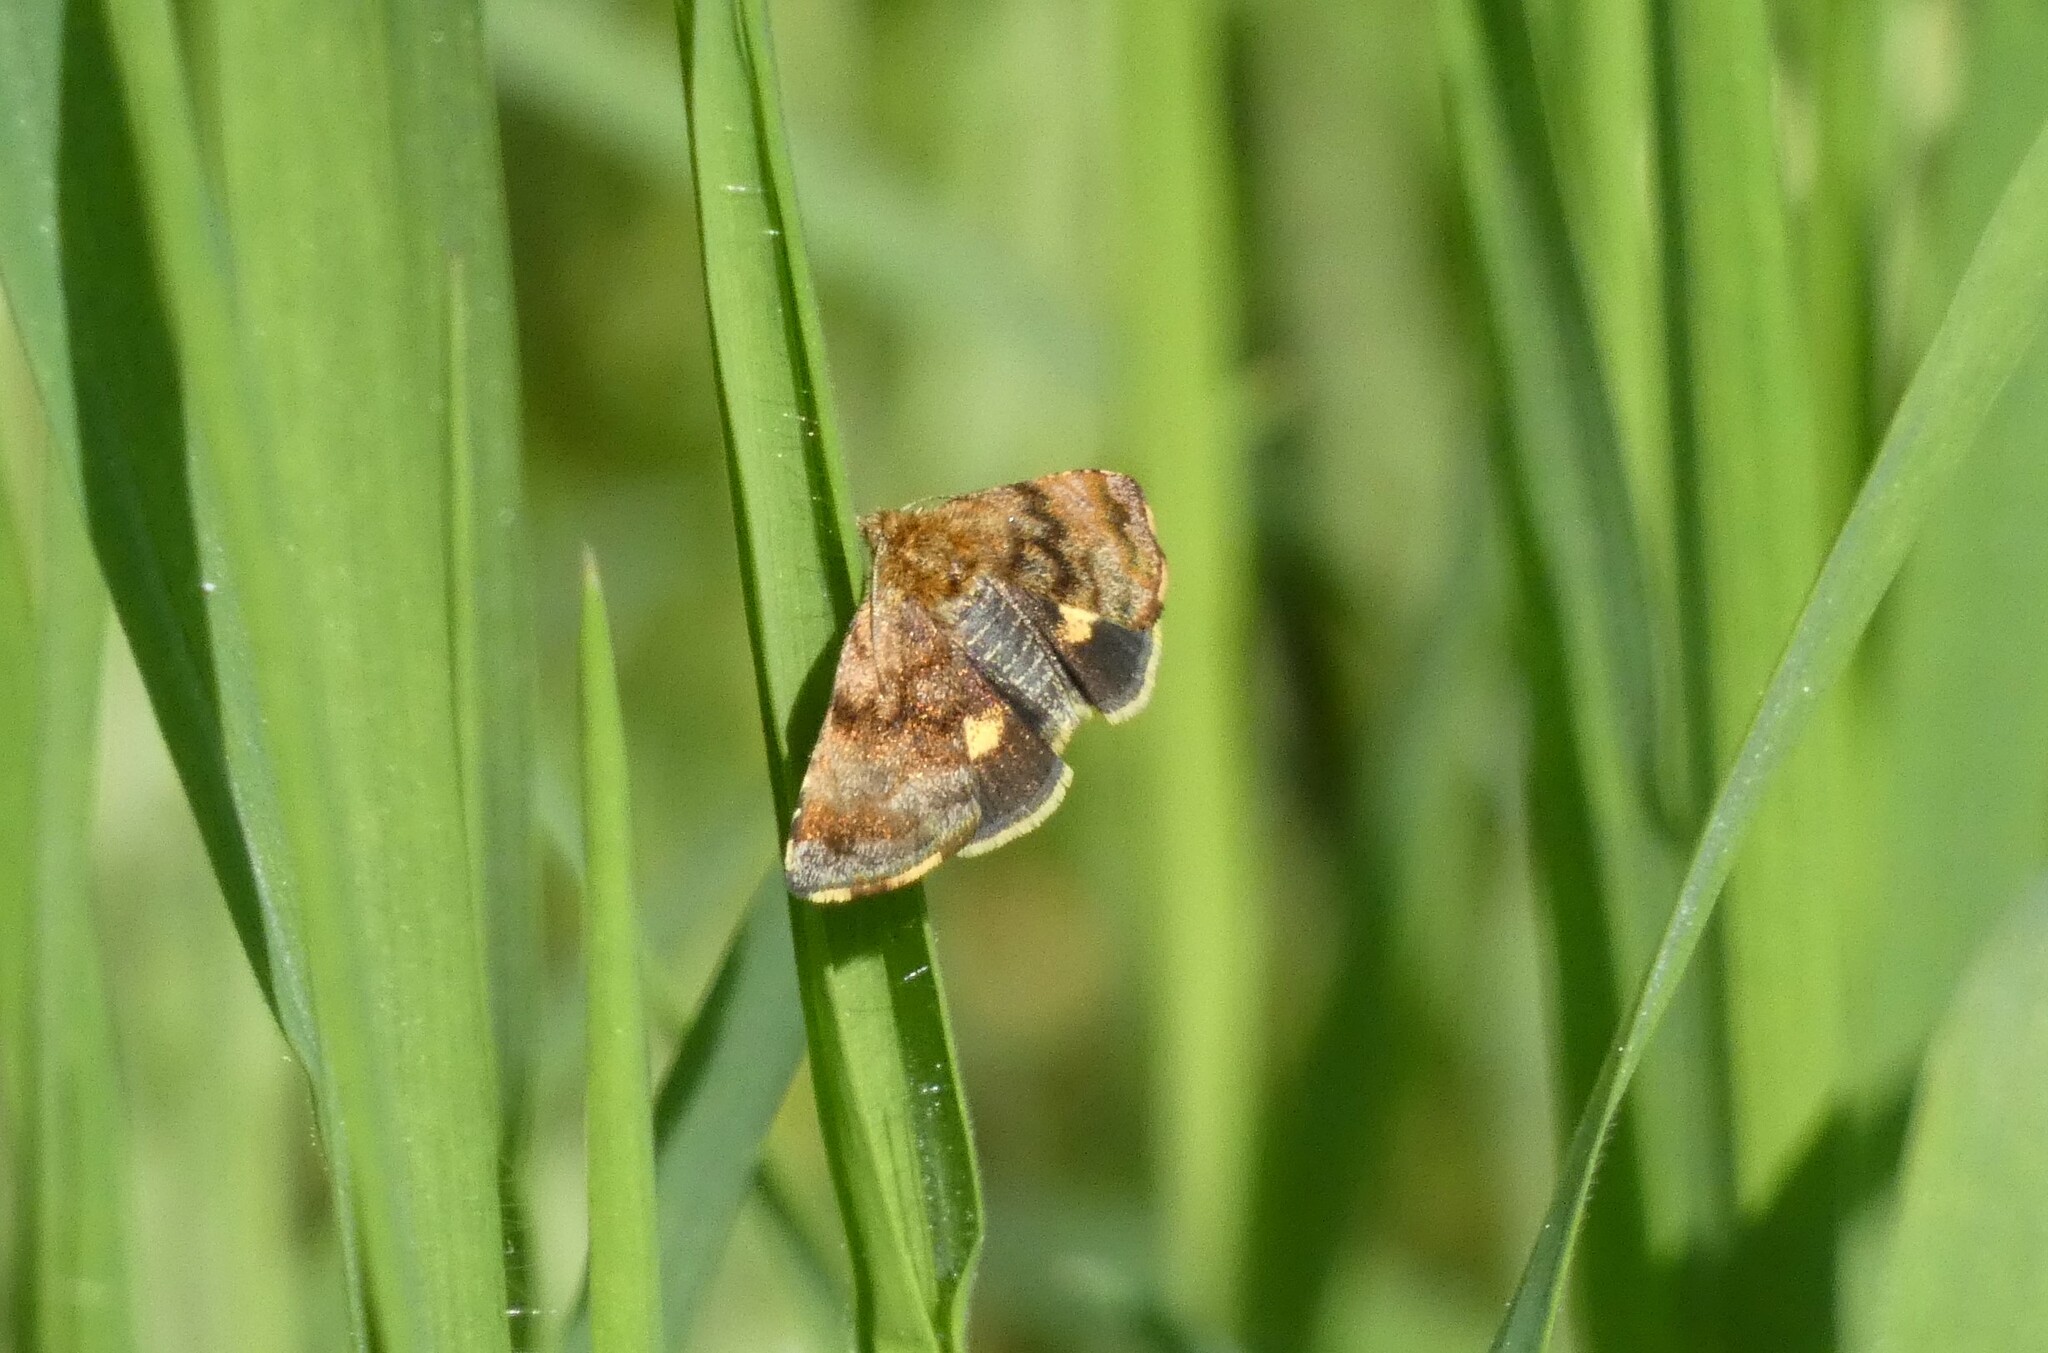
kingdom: Animalia
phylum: Arthropoda
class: Insecta
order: Lepidoptera
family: Noctuidae
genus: Panemeria
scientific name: Panemeria tenebrata
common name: Small yellow underwing
